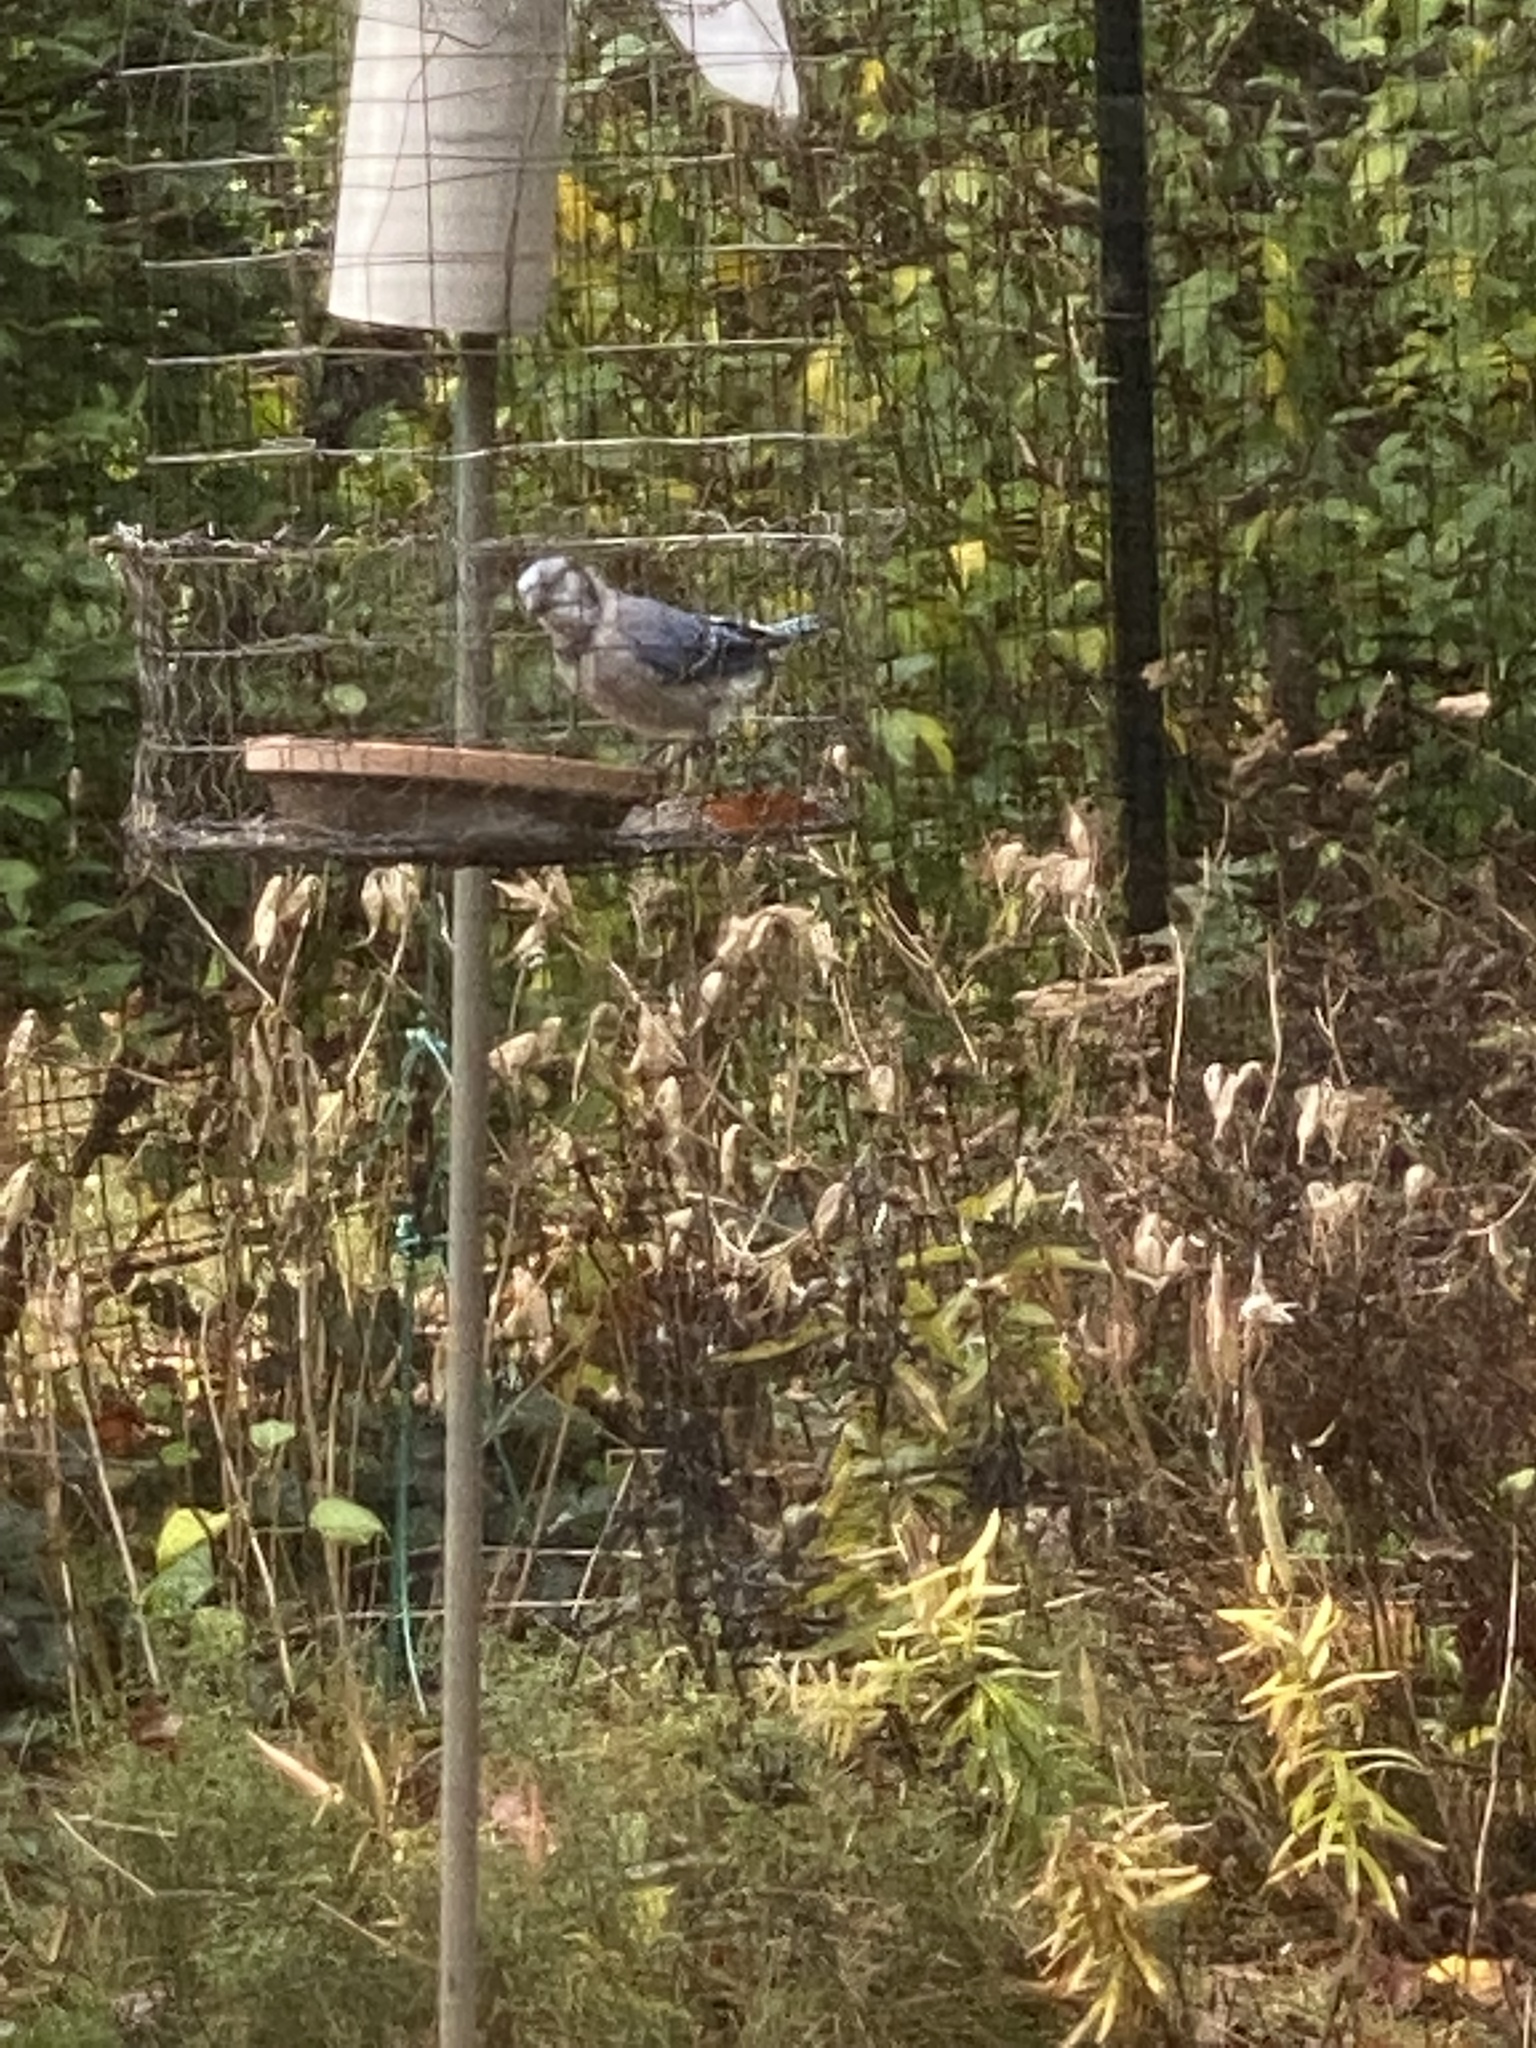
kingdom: Animalia
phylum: Chordata
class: Aves
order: Passeriformes
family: Corvidae
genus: Cyanocitta
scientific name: Cyanocitta cristata
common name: Blue jay
